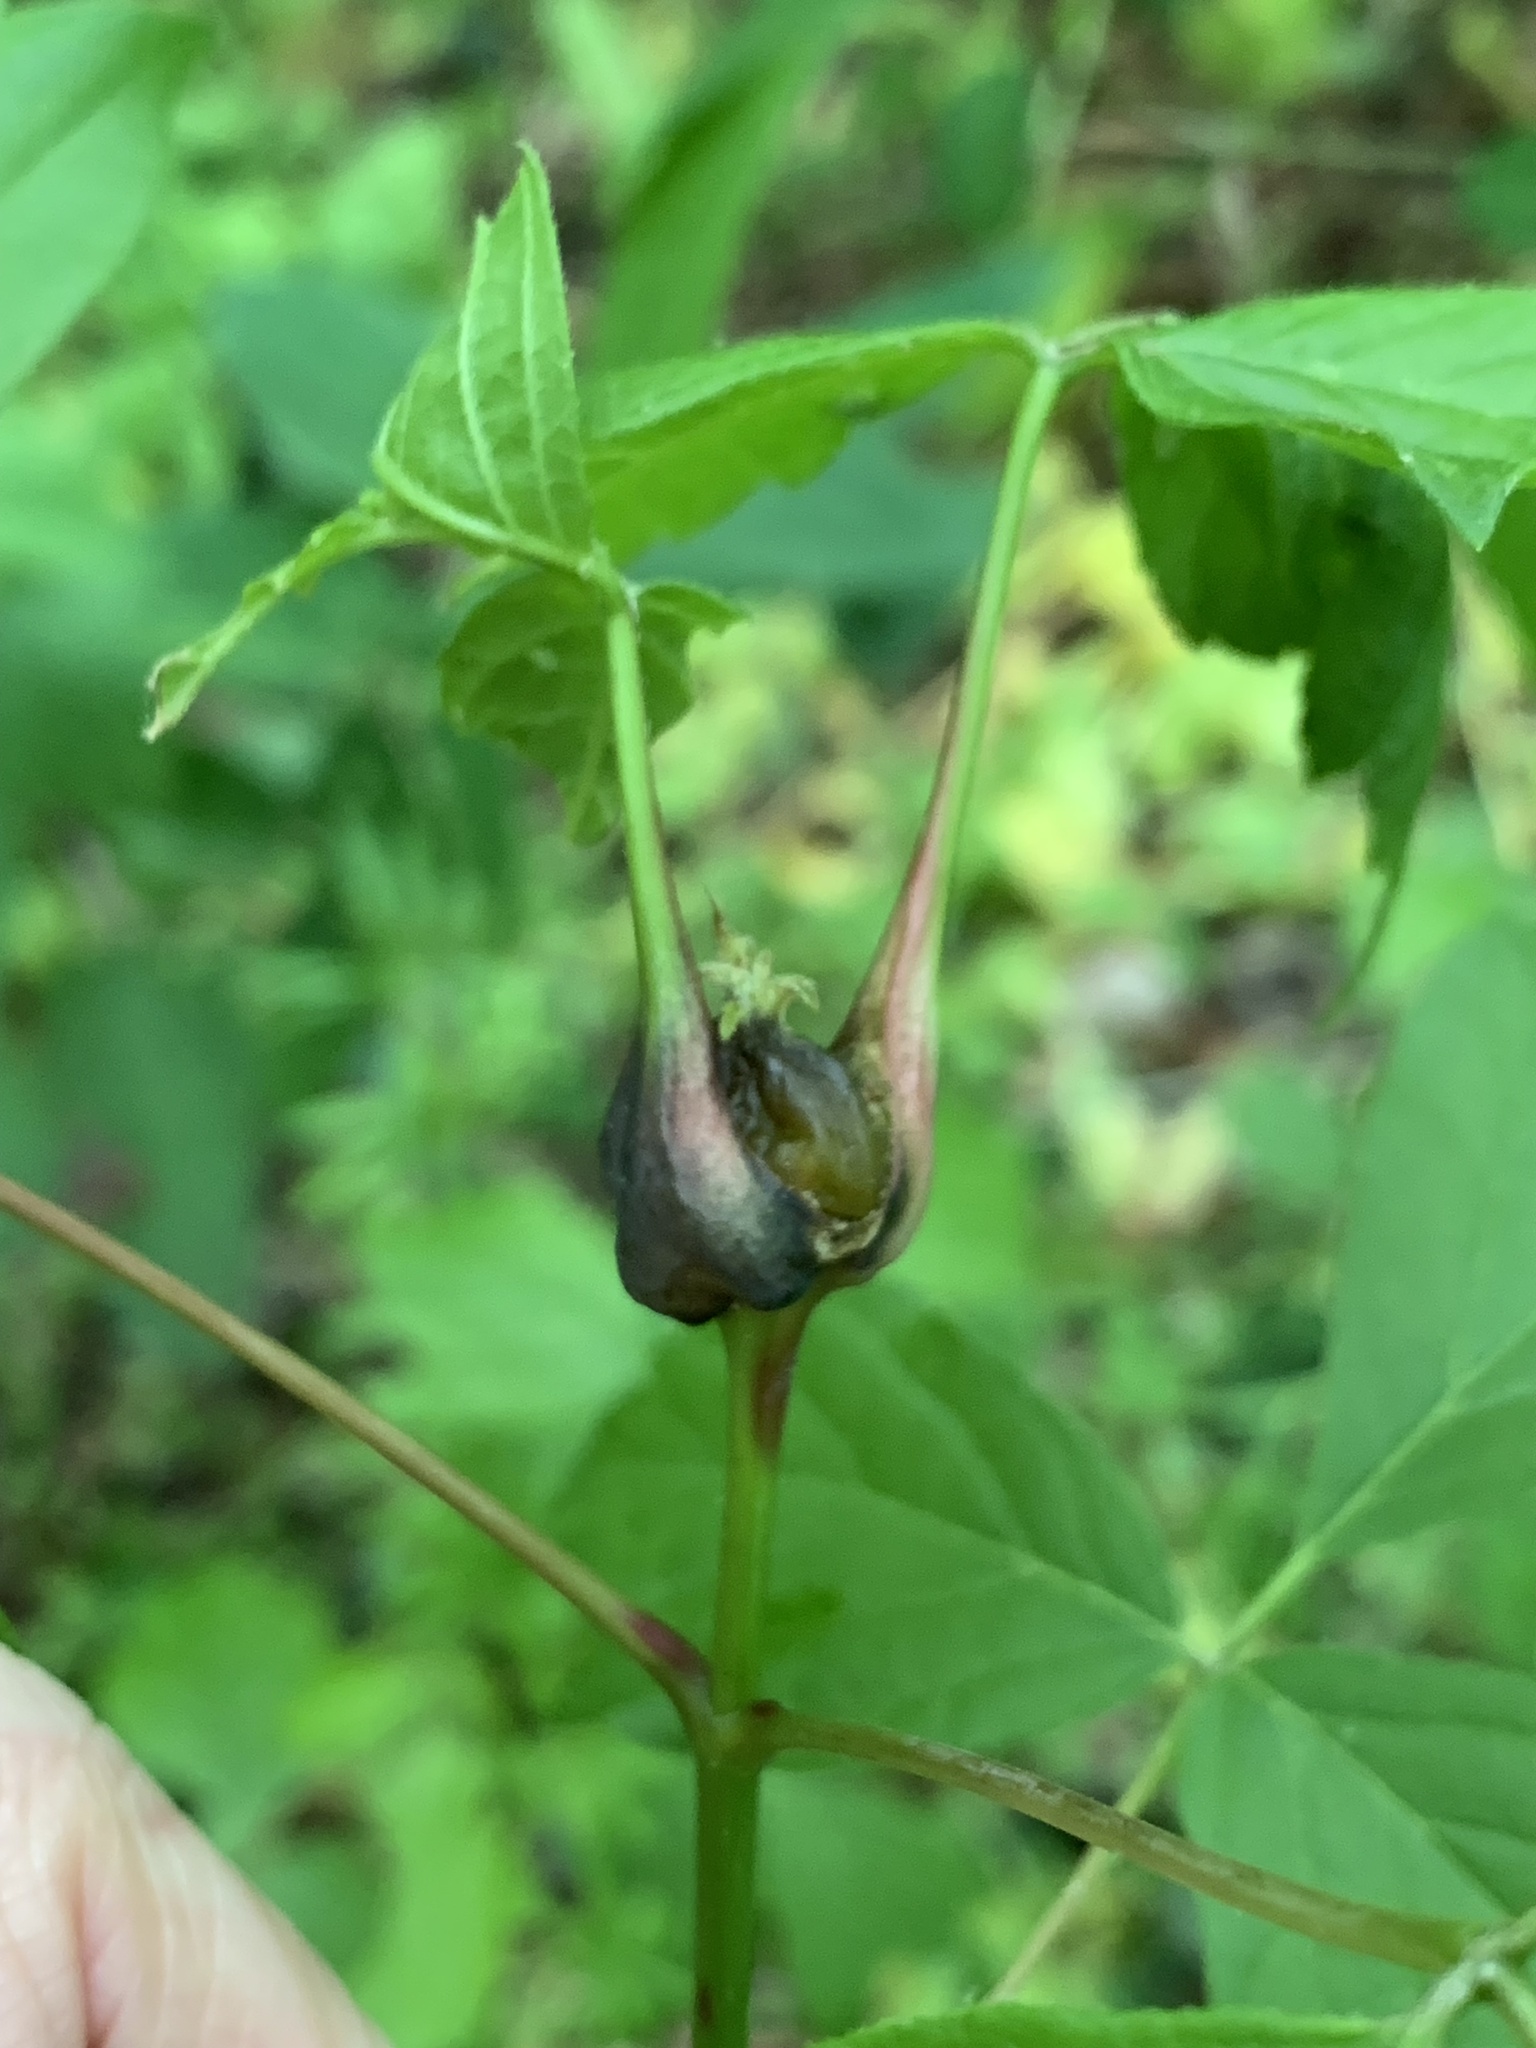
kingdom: Animalia
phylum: Arthropoda
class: Insecta
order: Diptera
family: Cecidomyiidae
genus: Contarinia
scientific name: Contarinia negundinis
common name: Boxelder budgall midge
